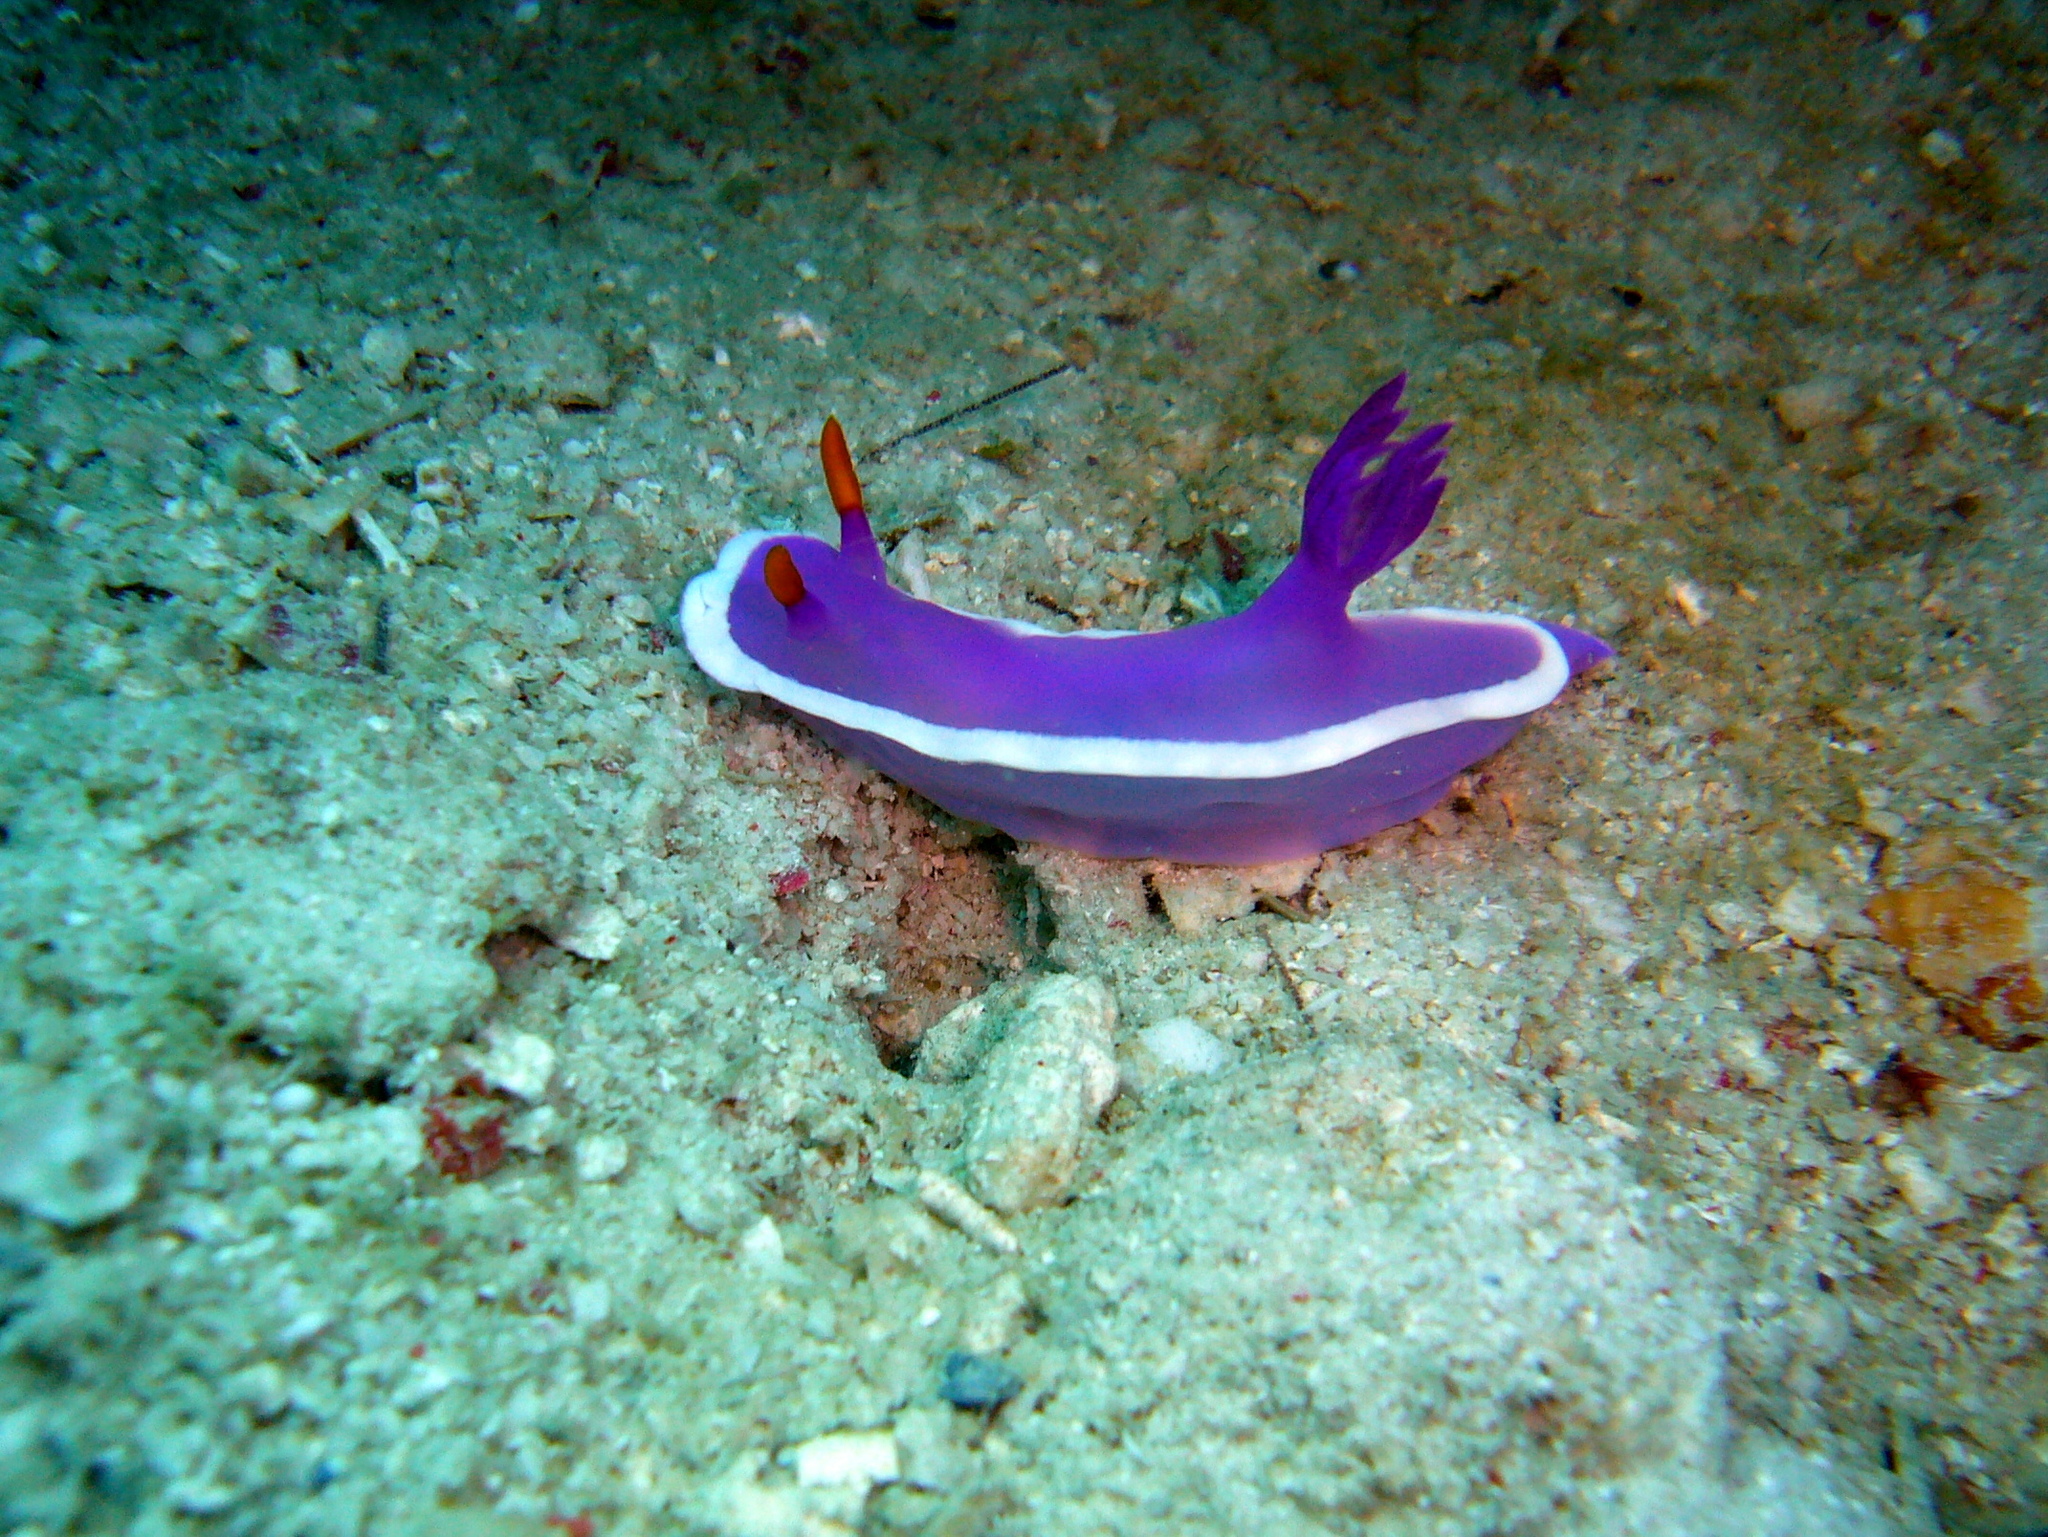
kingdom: Animalia
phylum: Mollusca
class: Gastropoda
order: Nudibranchia
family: Chromodorididae
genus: Hypselodoris
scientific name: Hypselodoris variobranchia
